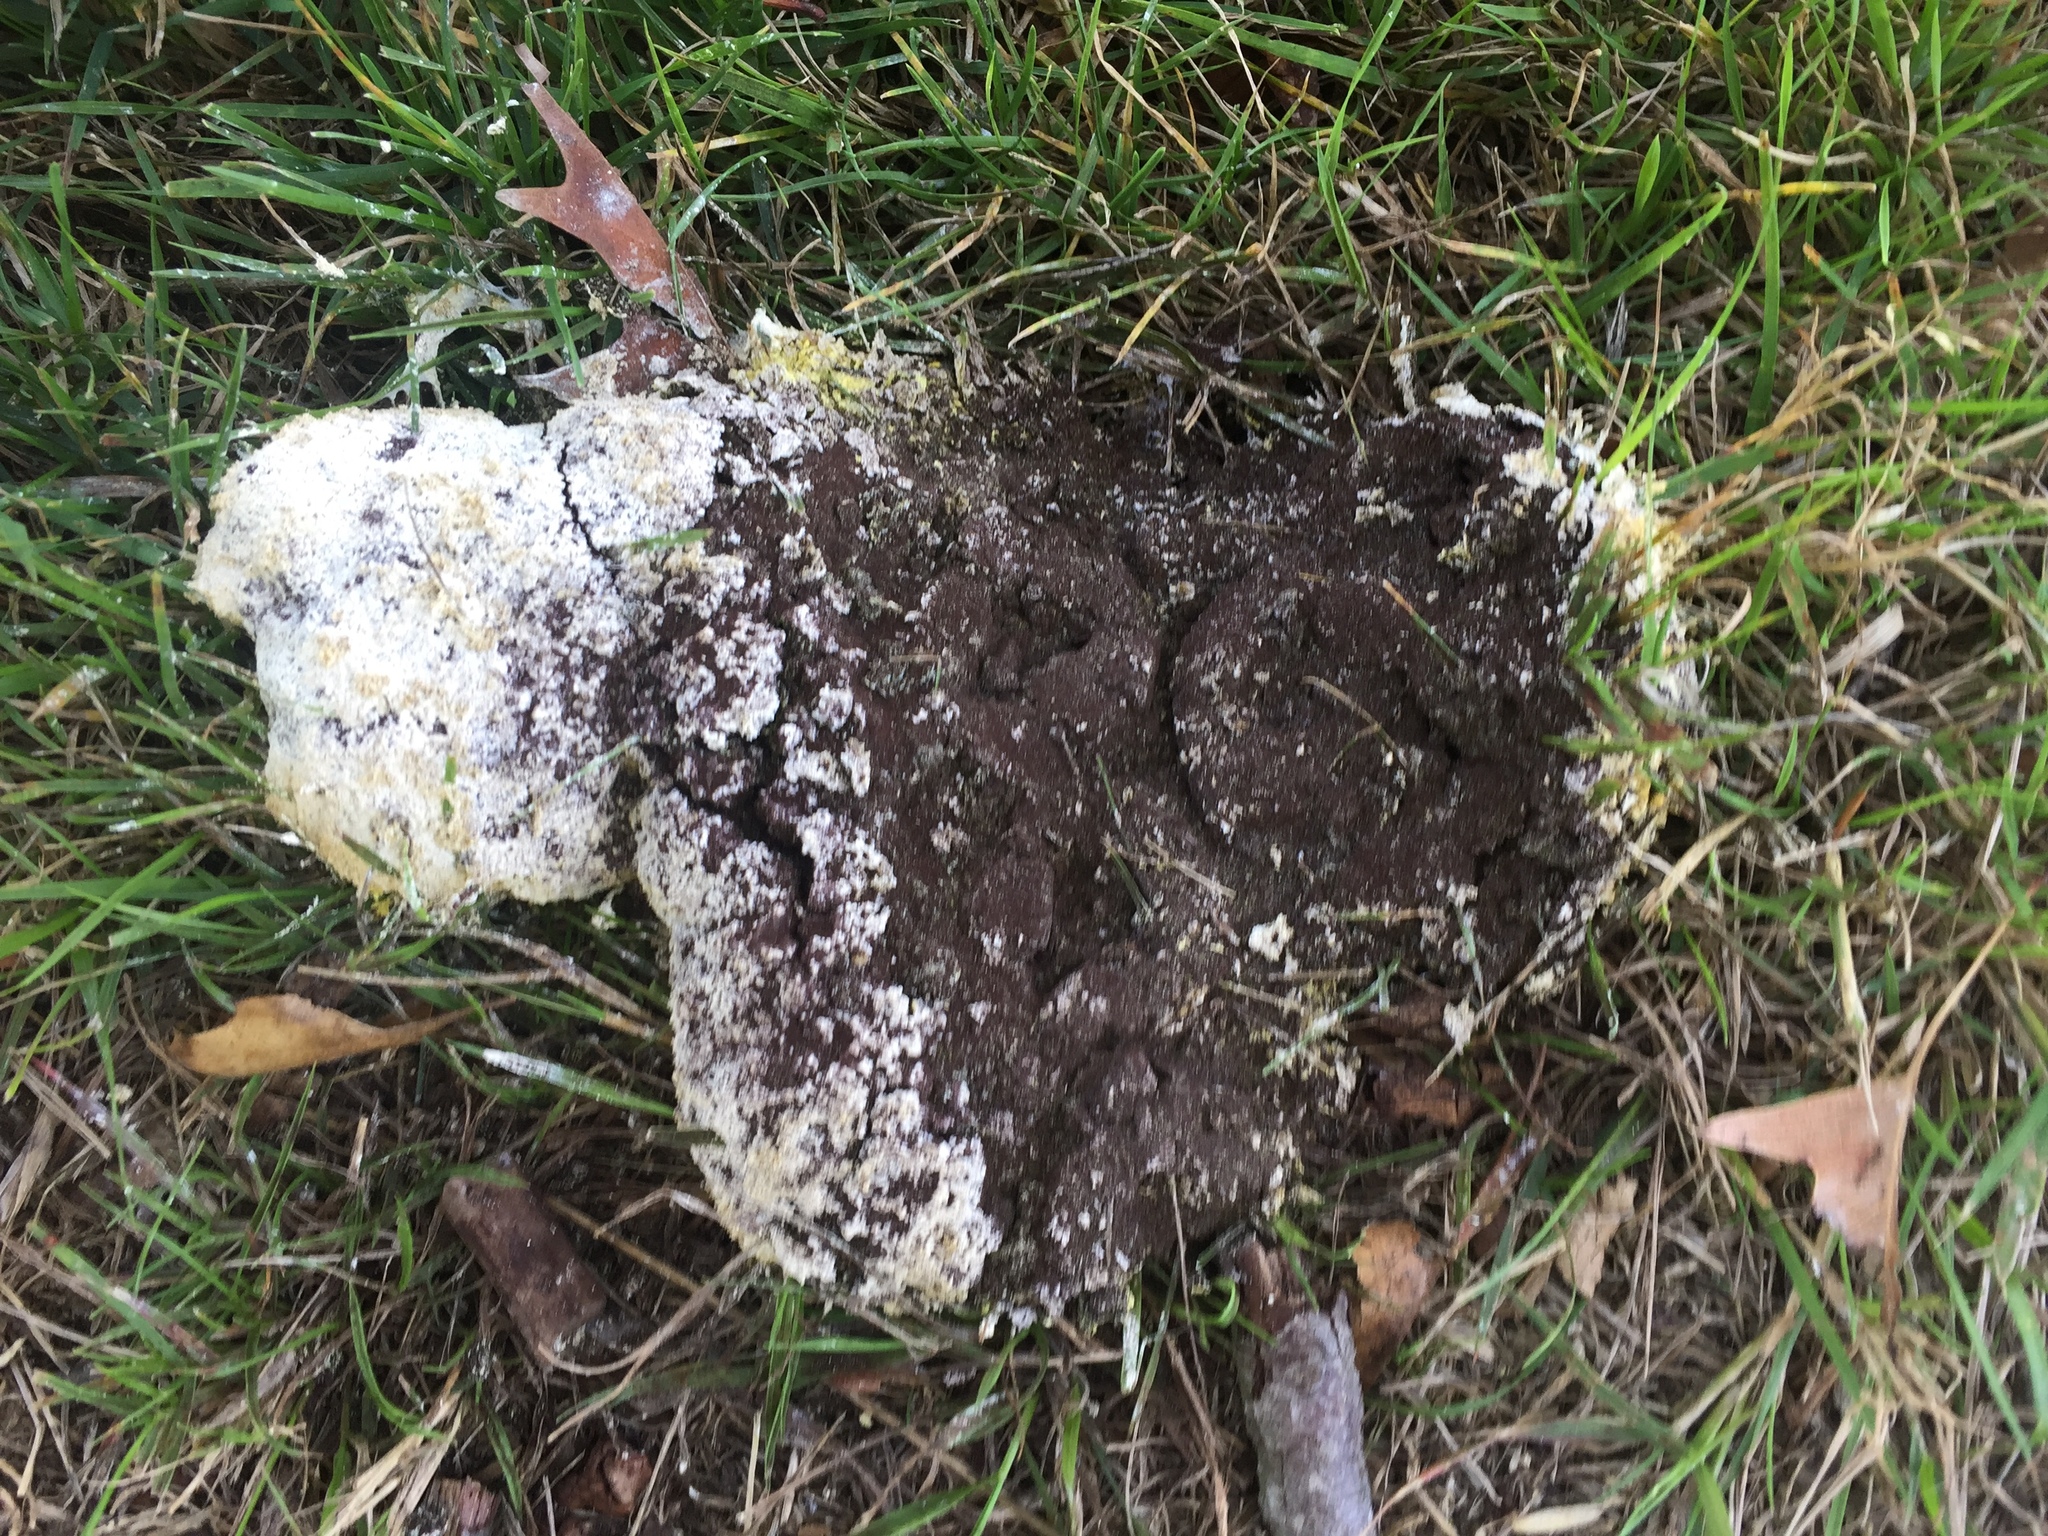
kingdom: Protozoa
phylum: Mycetozoa
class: Myxomycetes
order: Physarales
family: Physaraceae
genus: Fuligo
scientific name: Fuligo septica
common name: Dog vomit slime mold
